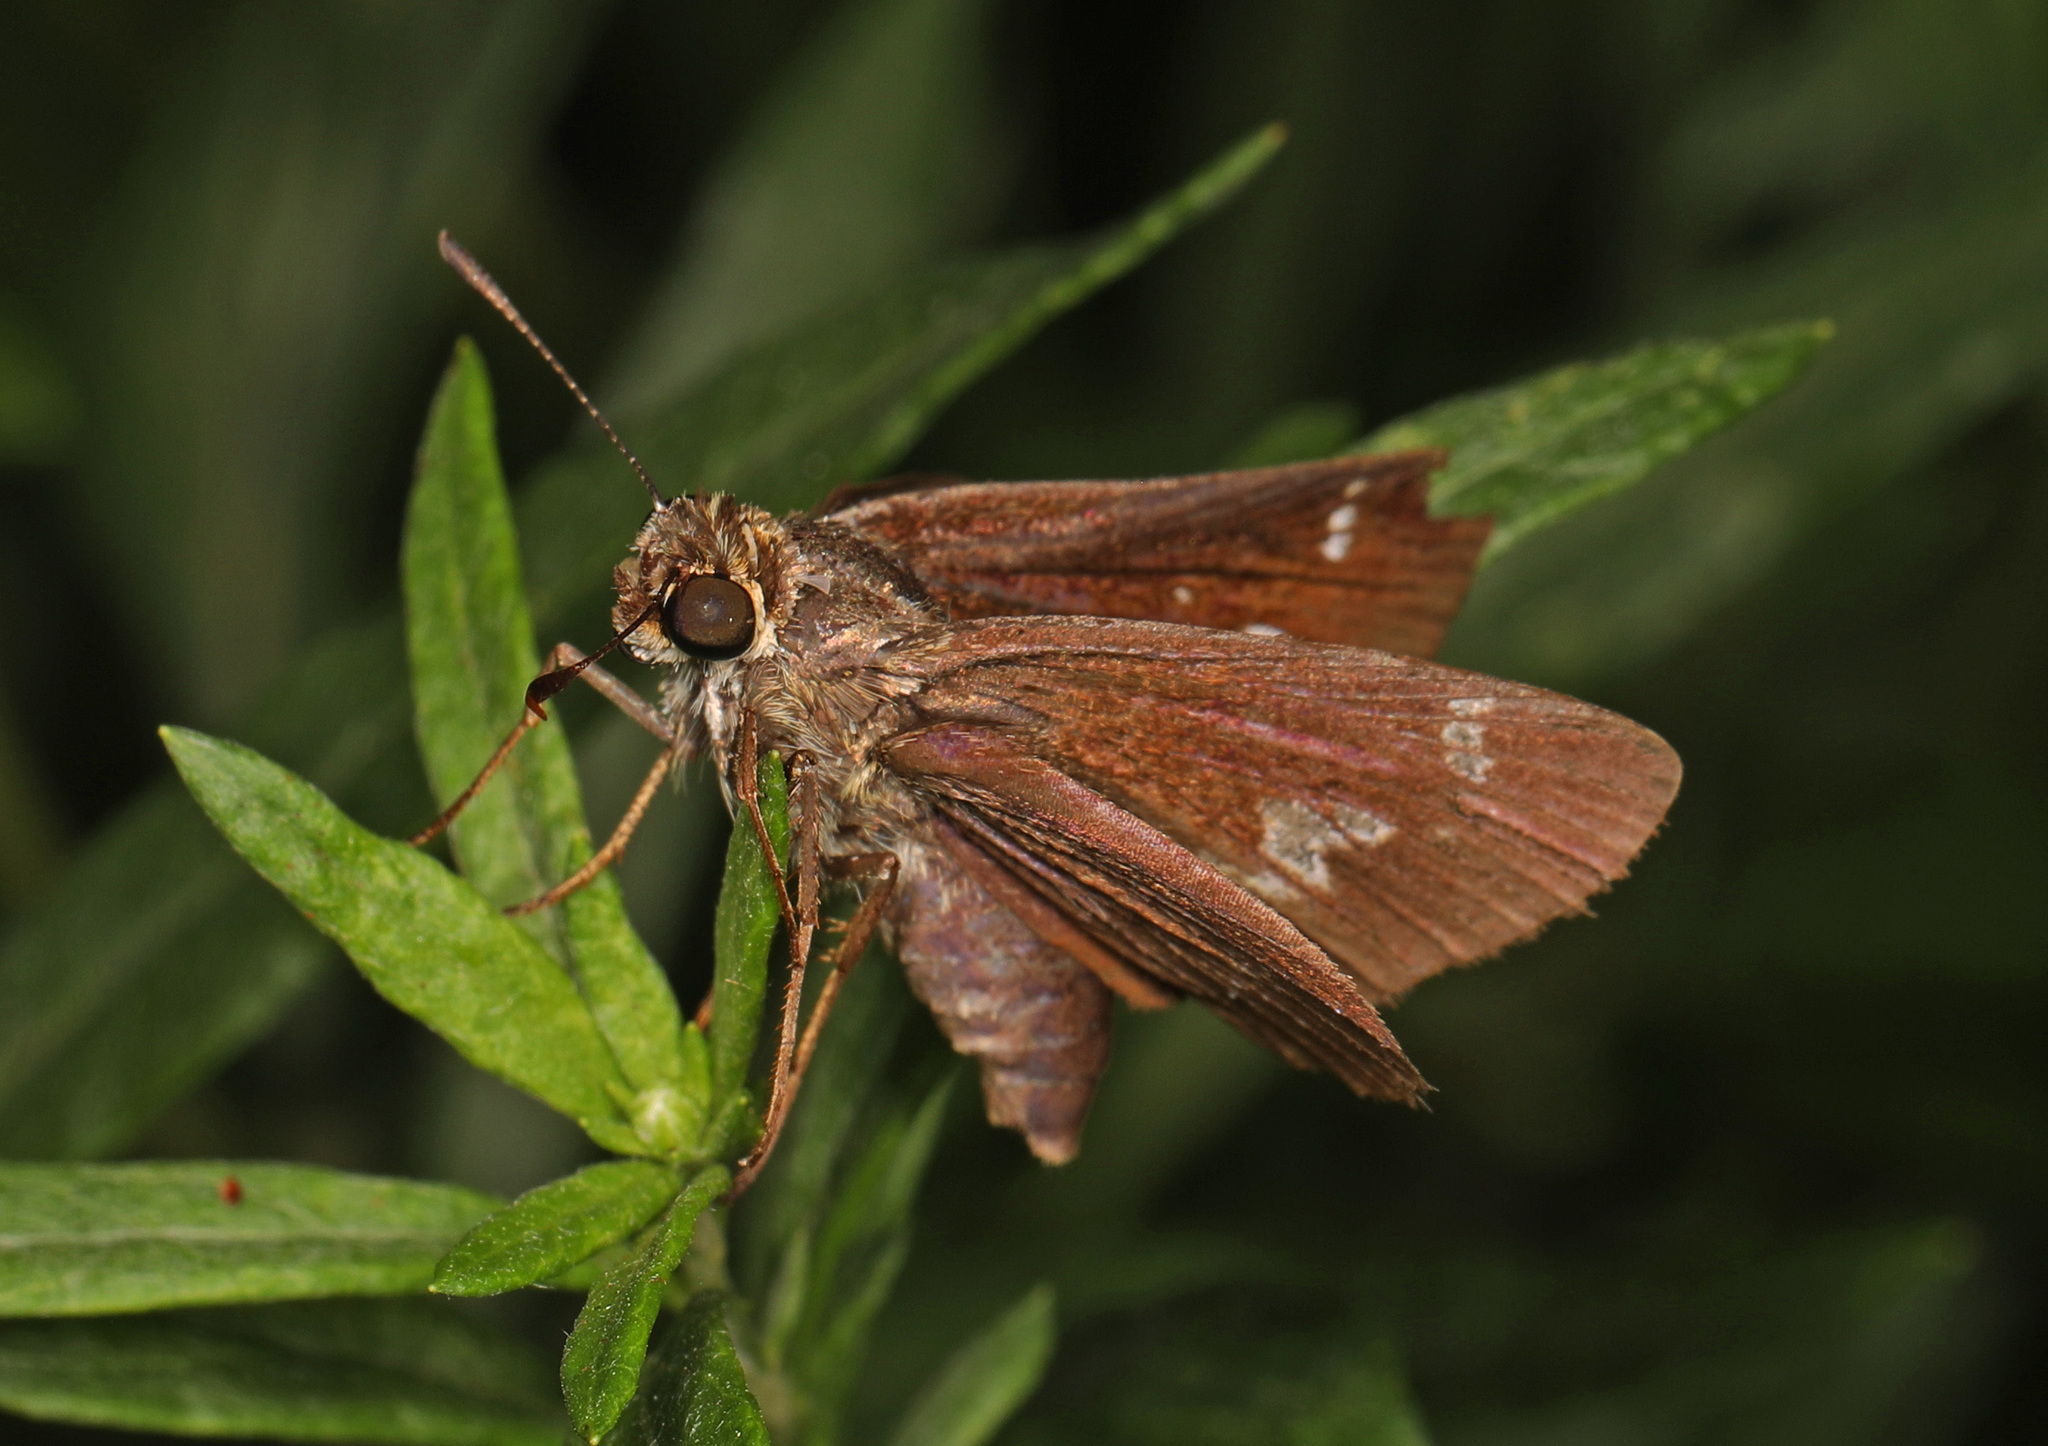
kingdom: Animalia
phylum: Arthropoda
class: Insecta
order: Lepidoptera
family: Hesperiidae
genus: Vernia
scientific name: Vernia verna
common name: Little glassywing
